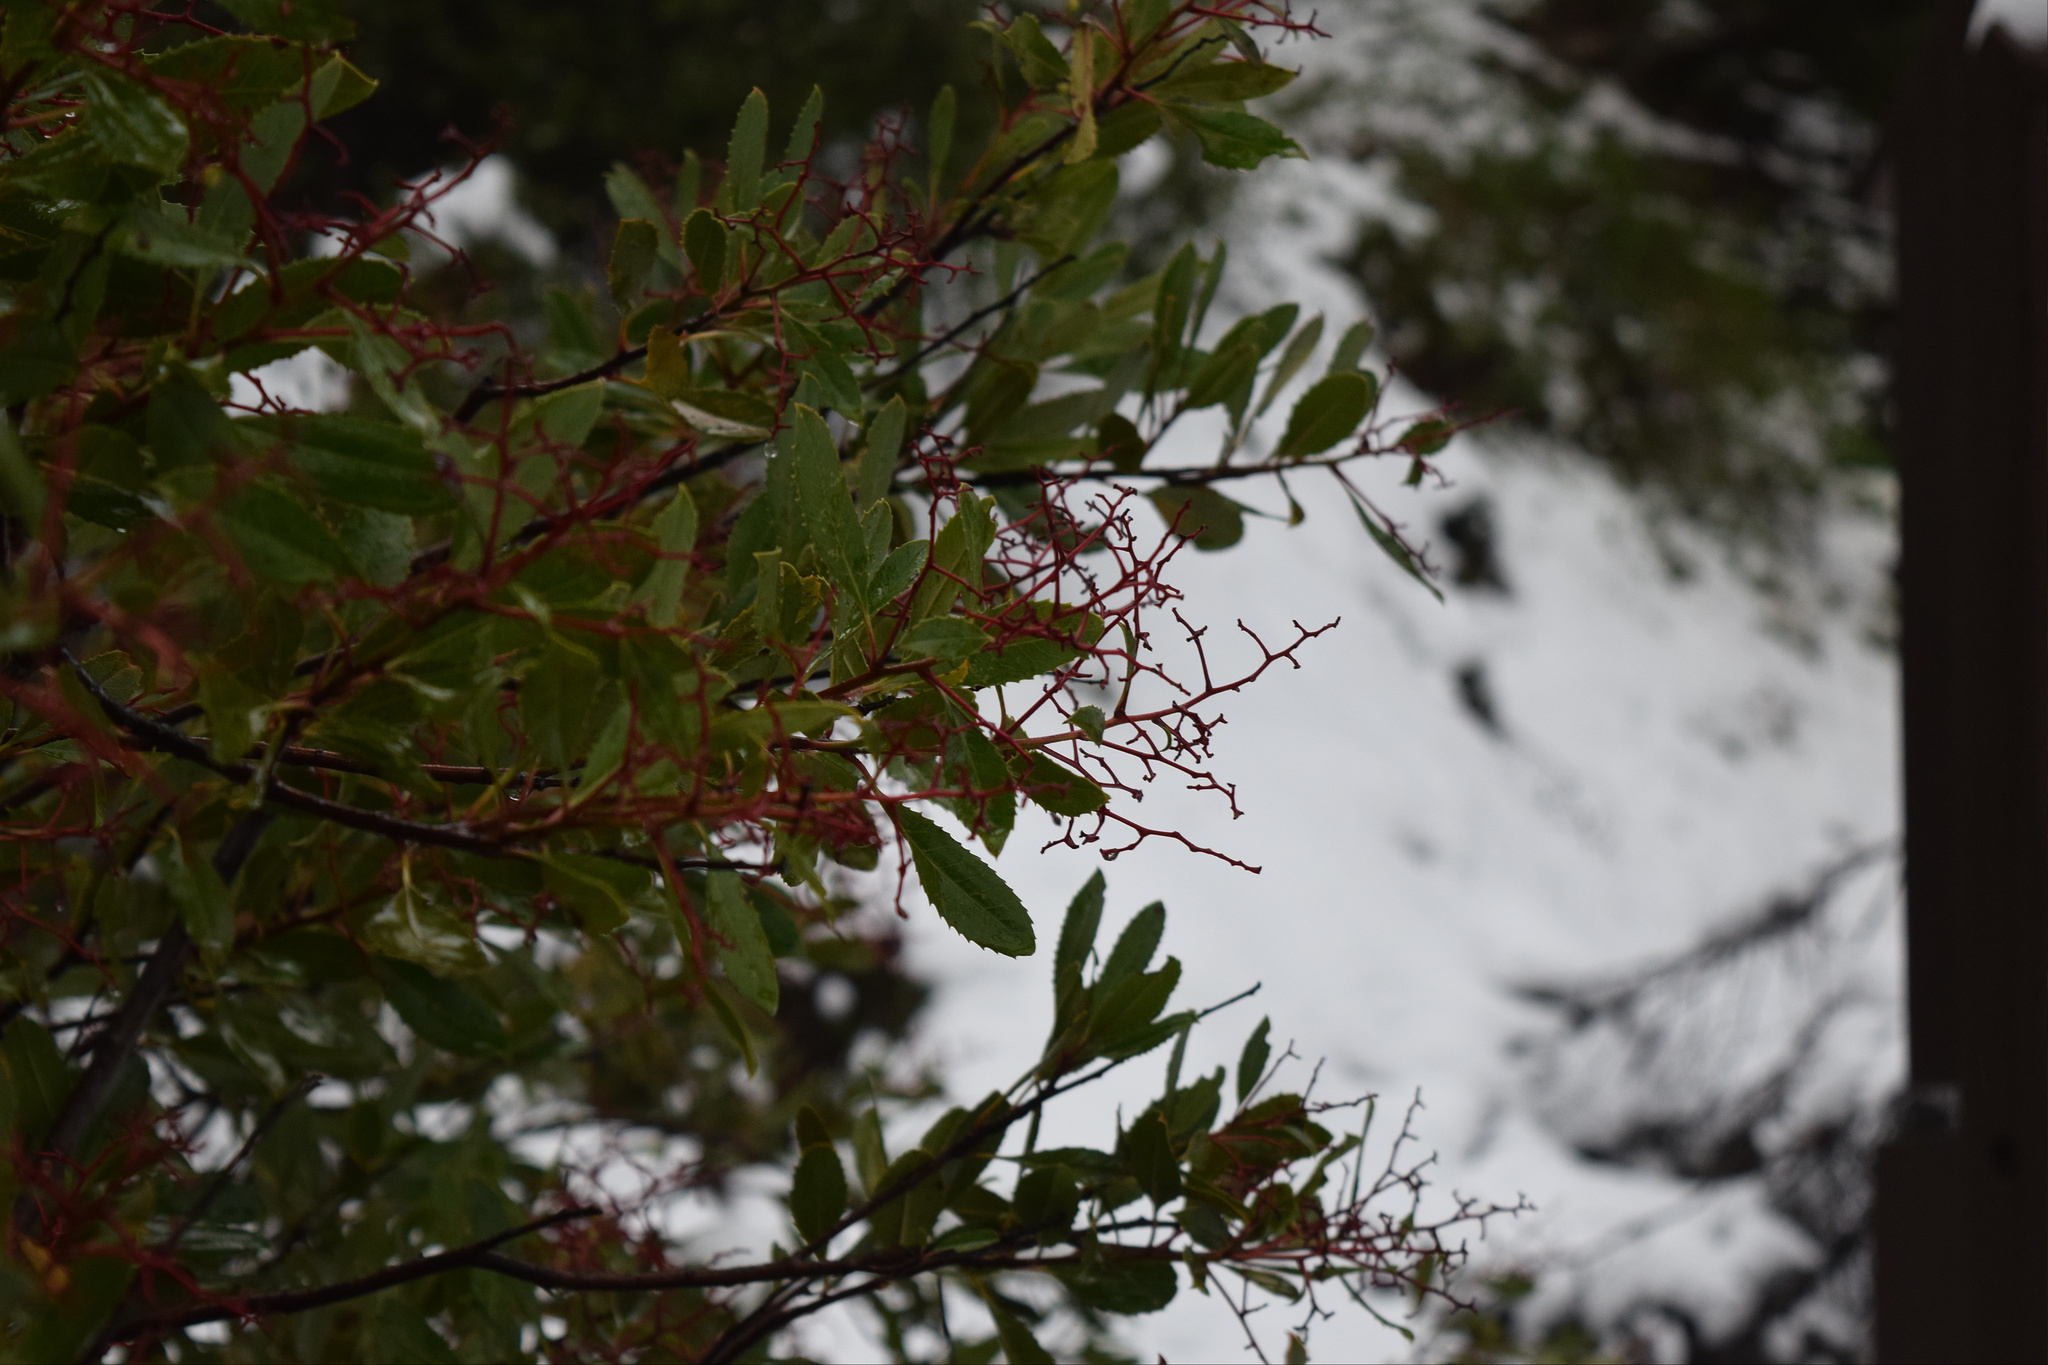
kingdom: Plantae
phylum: Tracheophyta
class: Magnoliopsida
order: Rosales
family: Rosaceae
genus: Heteromeles
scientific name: Heteromeles arbutifolia
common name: California-holly
